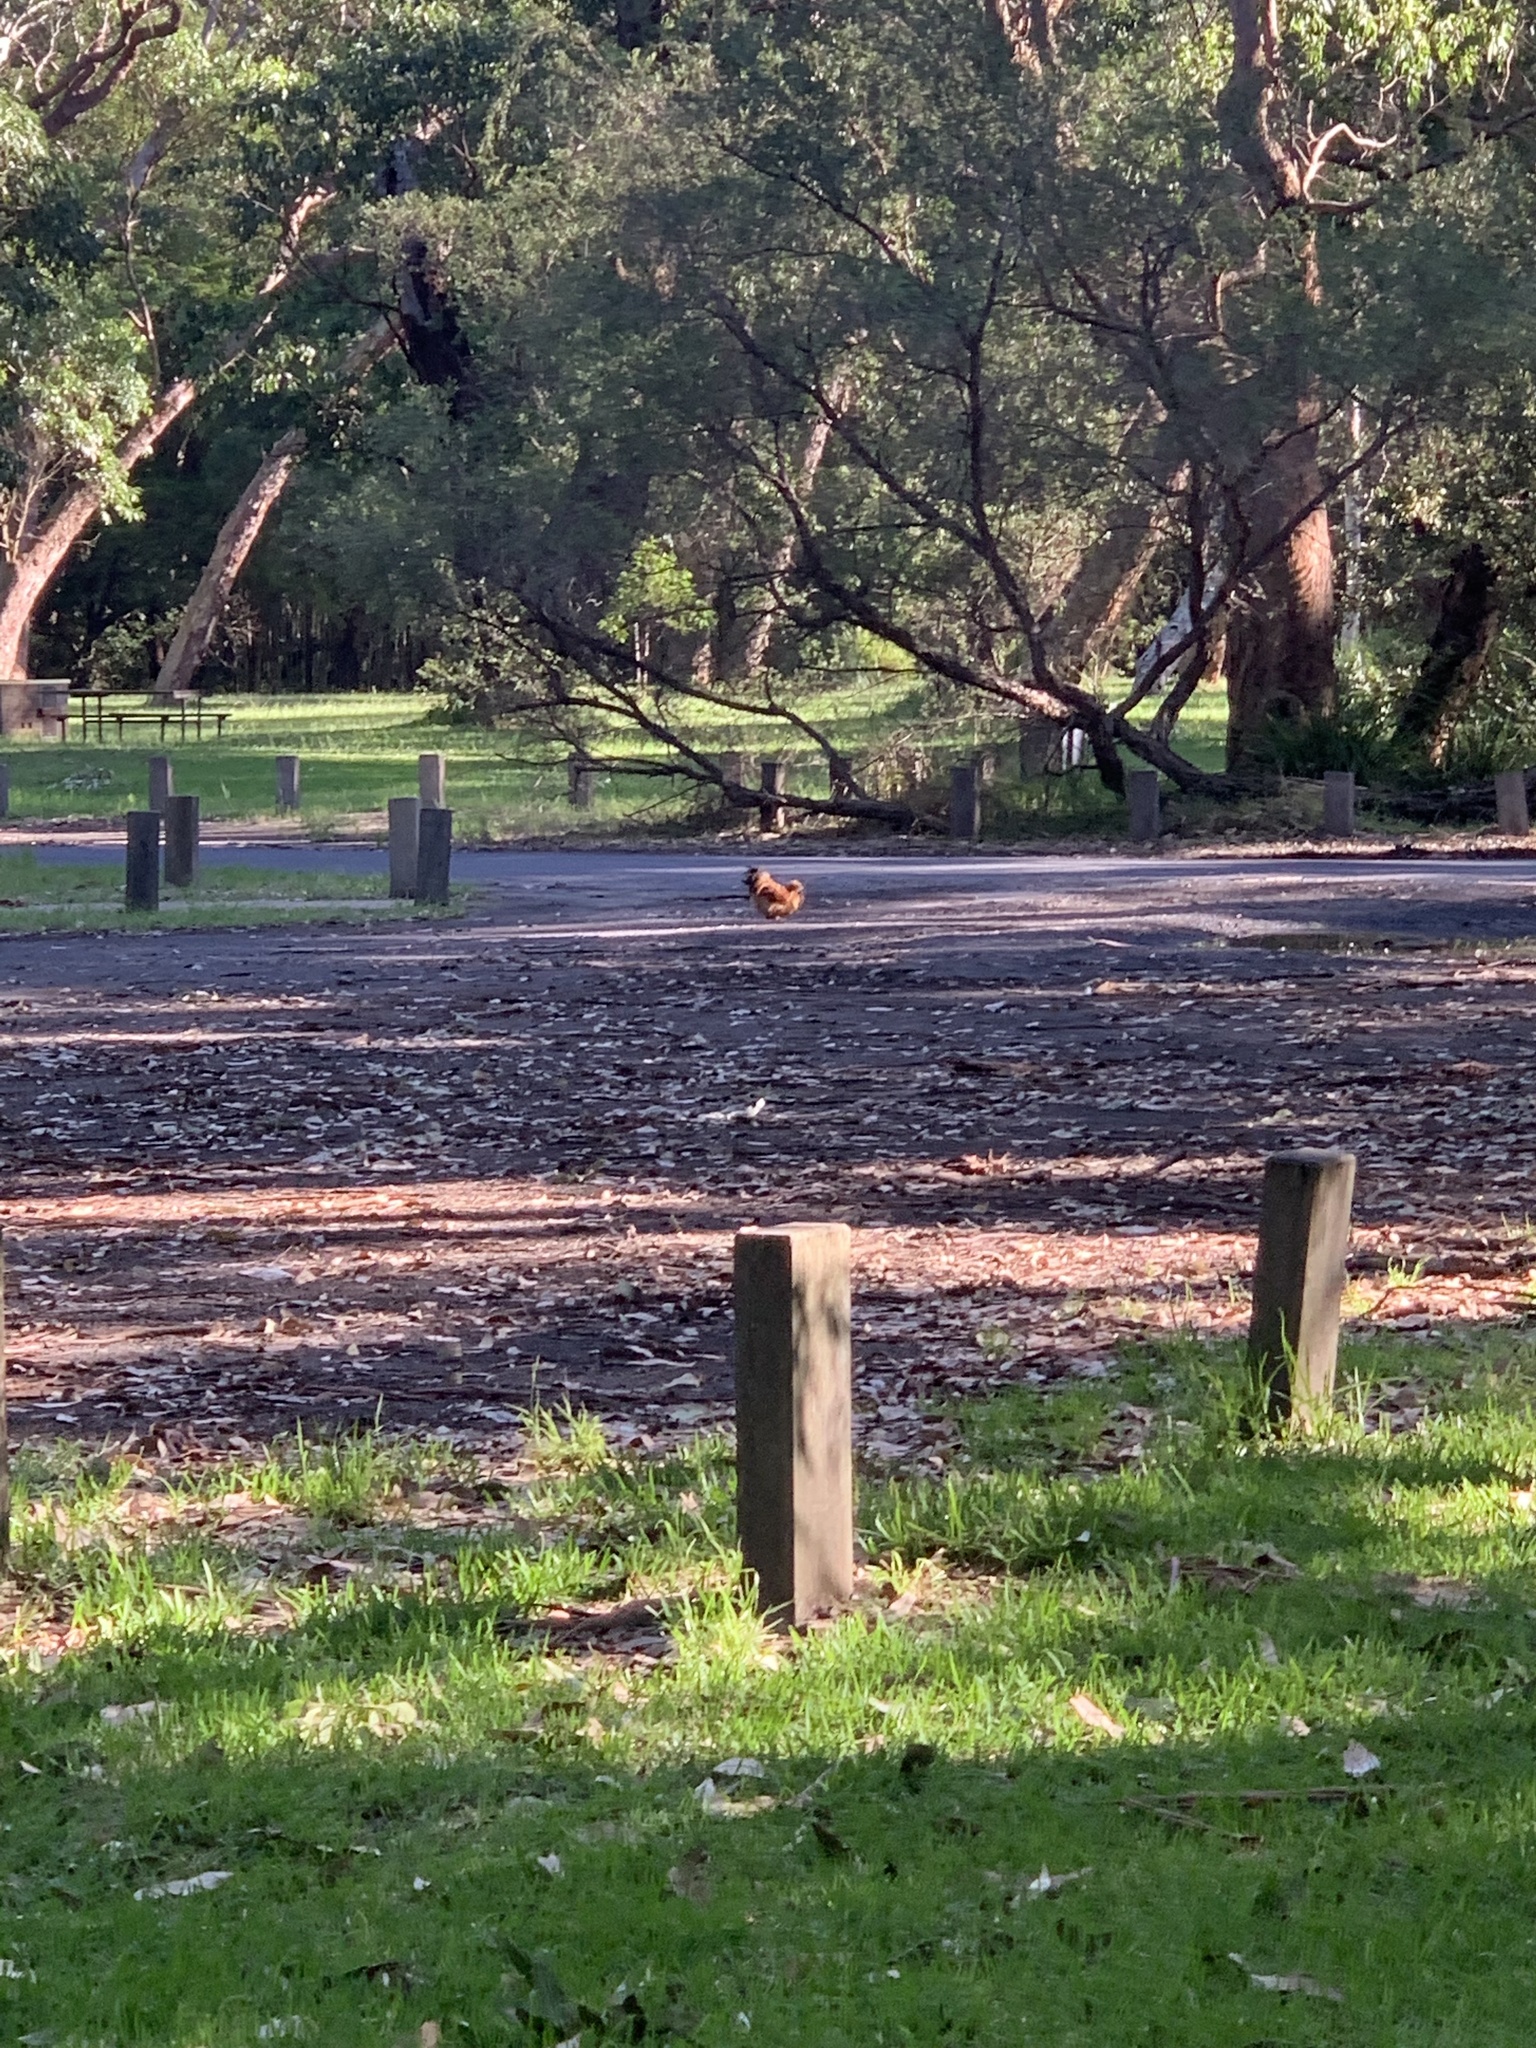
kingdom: Animalia
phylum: Chordata
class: Aves
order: Galliformes
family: Phasianidae
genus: Gallus
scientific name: Gallus gallus
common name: Red junglefowl
